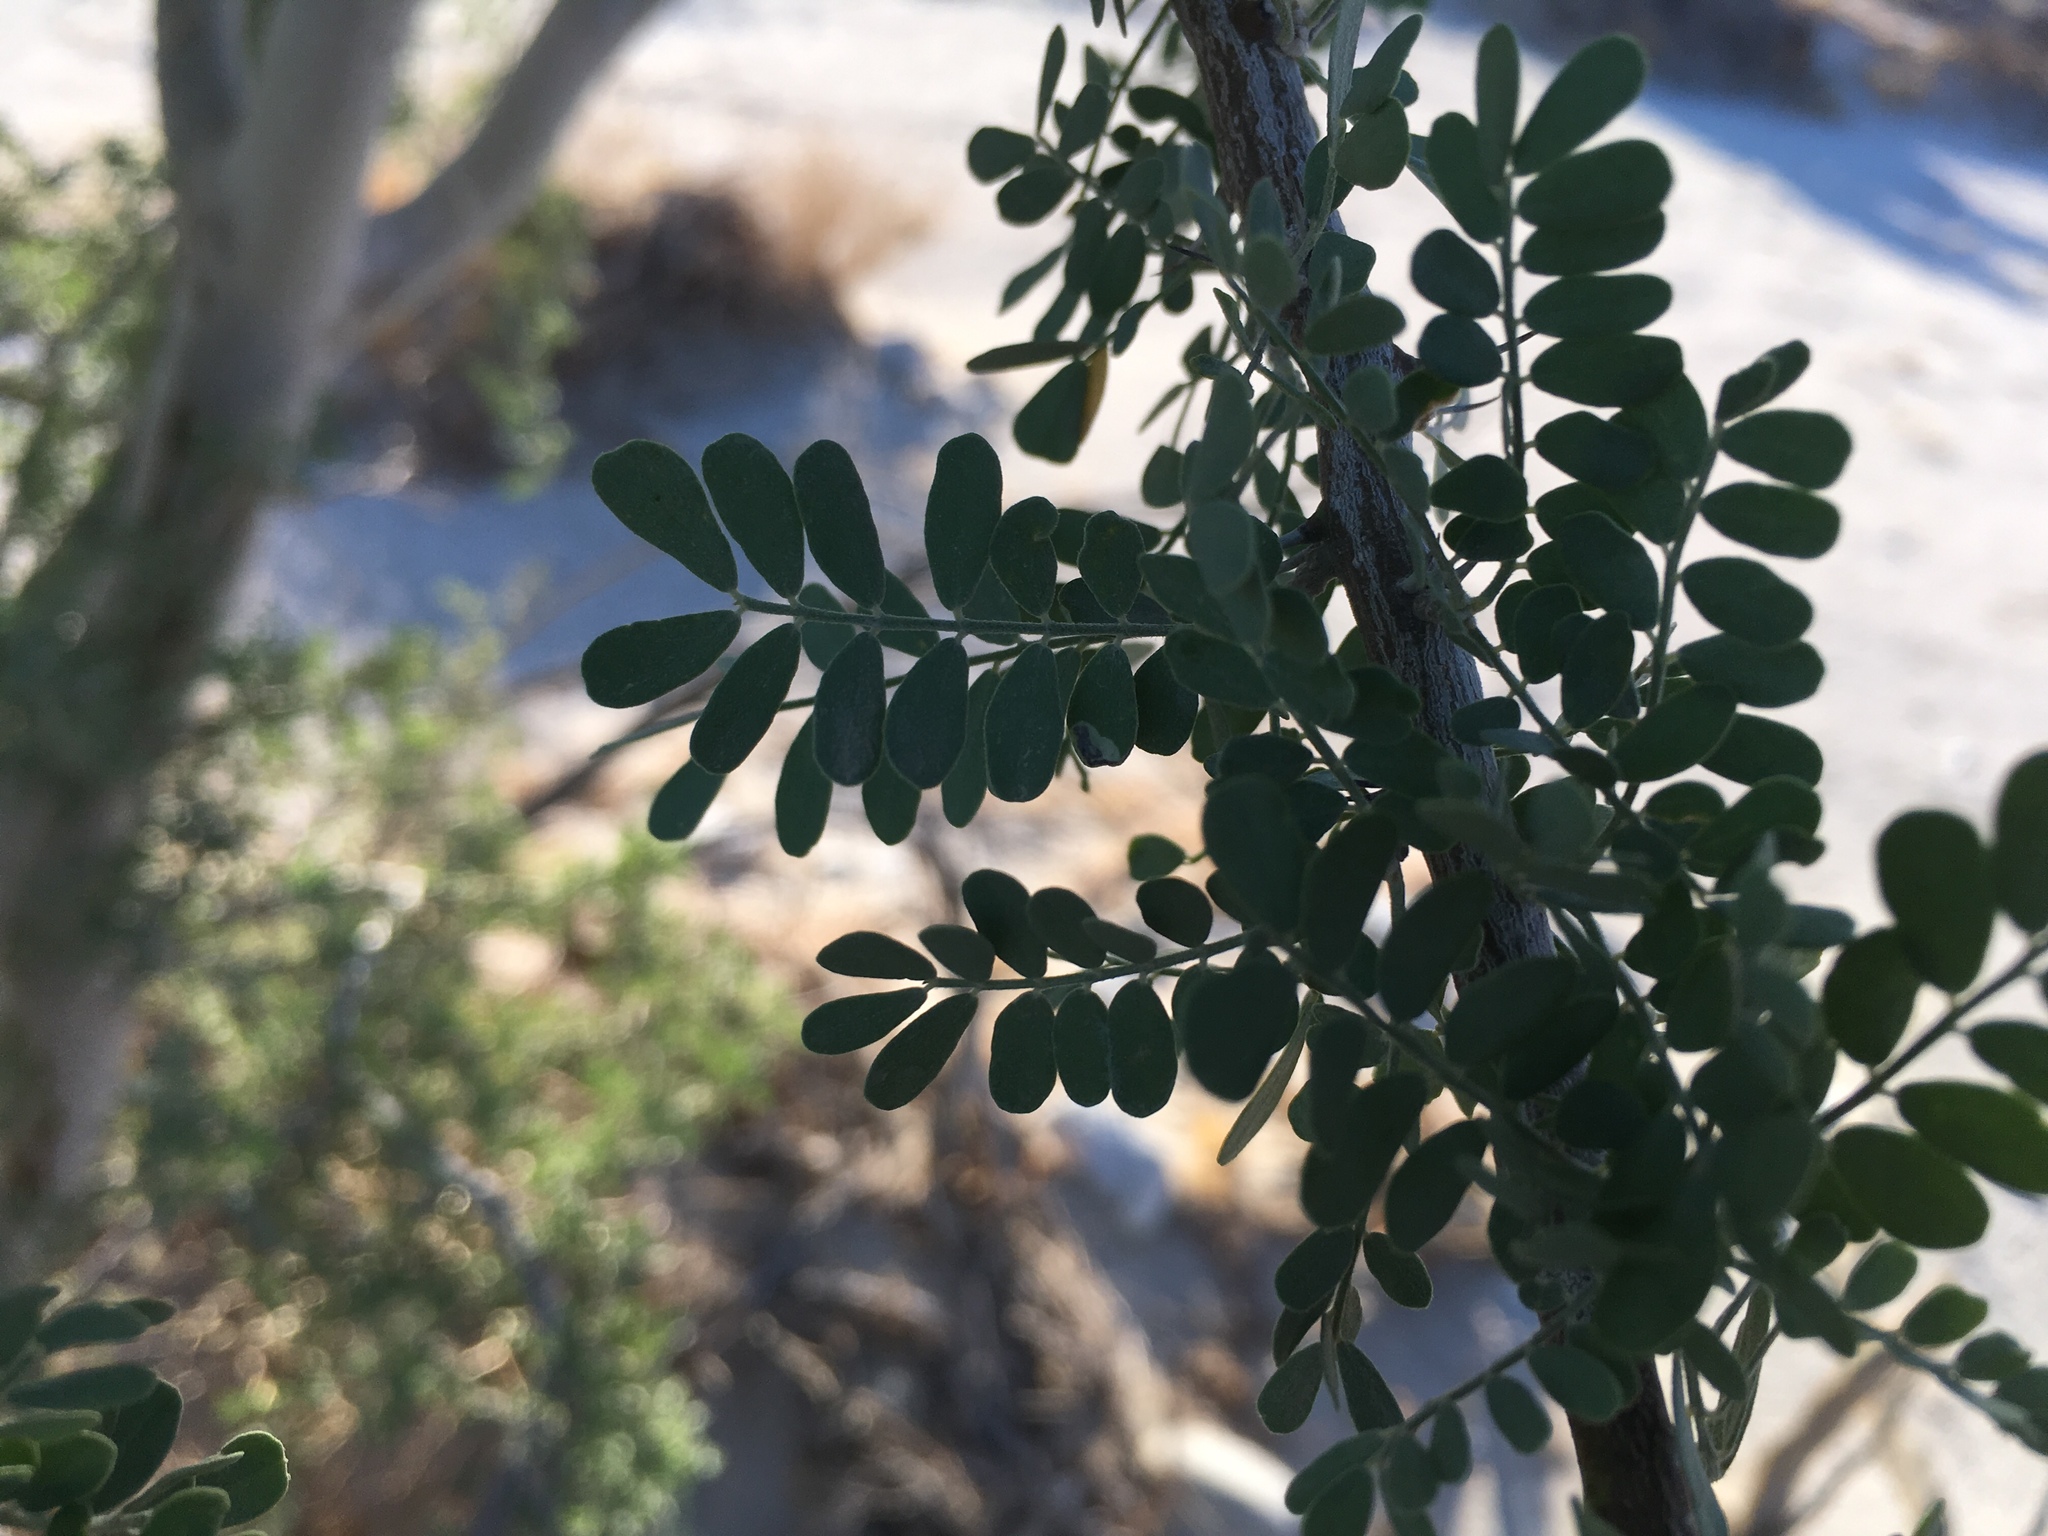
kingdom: Plantae
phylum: Tracheophyta
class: Magnoliopsida
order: Fabales
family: Fabaceae
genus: Olneya
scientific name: Olneya tesota
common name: Desert ironwood
